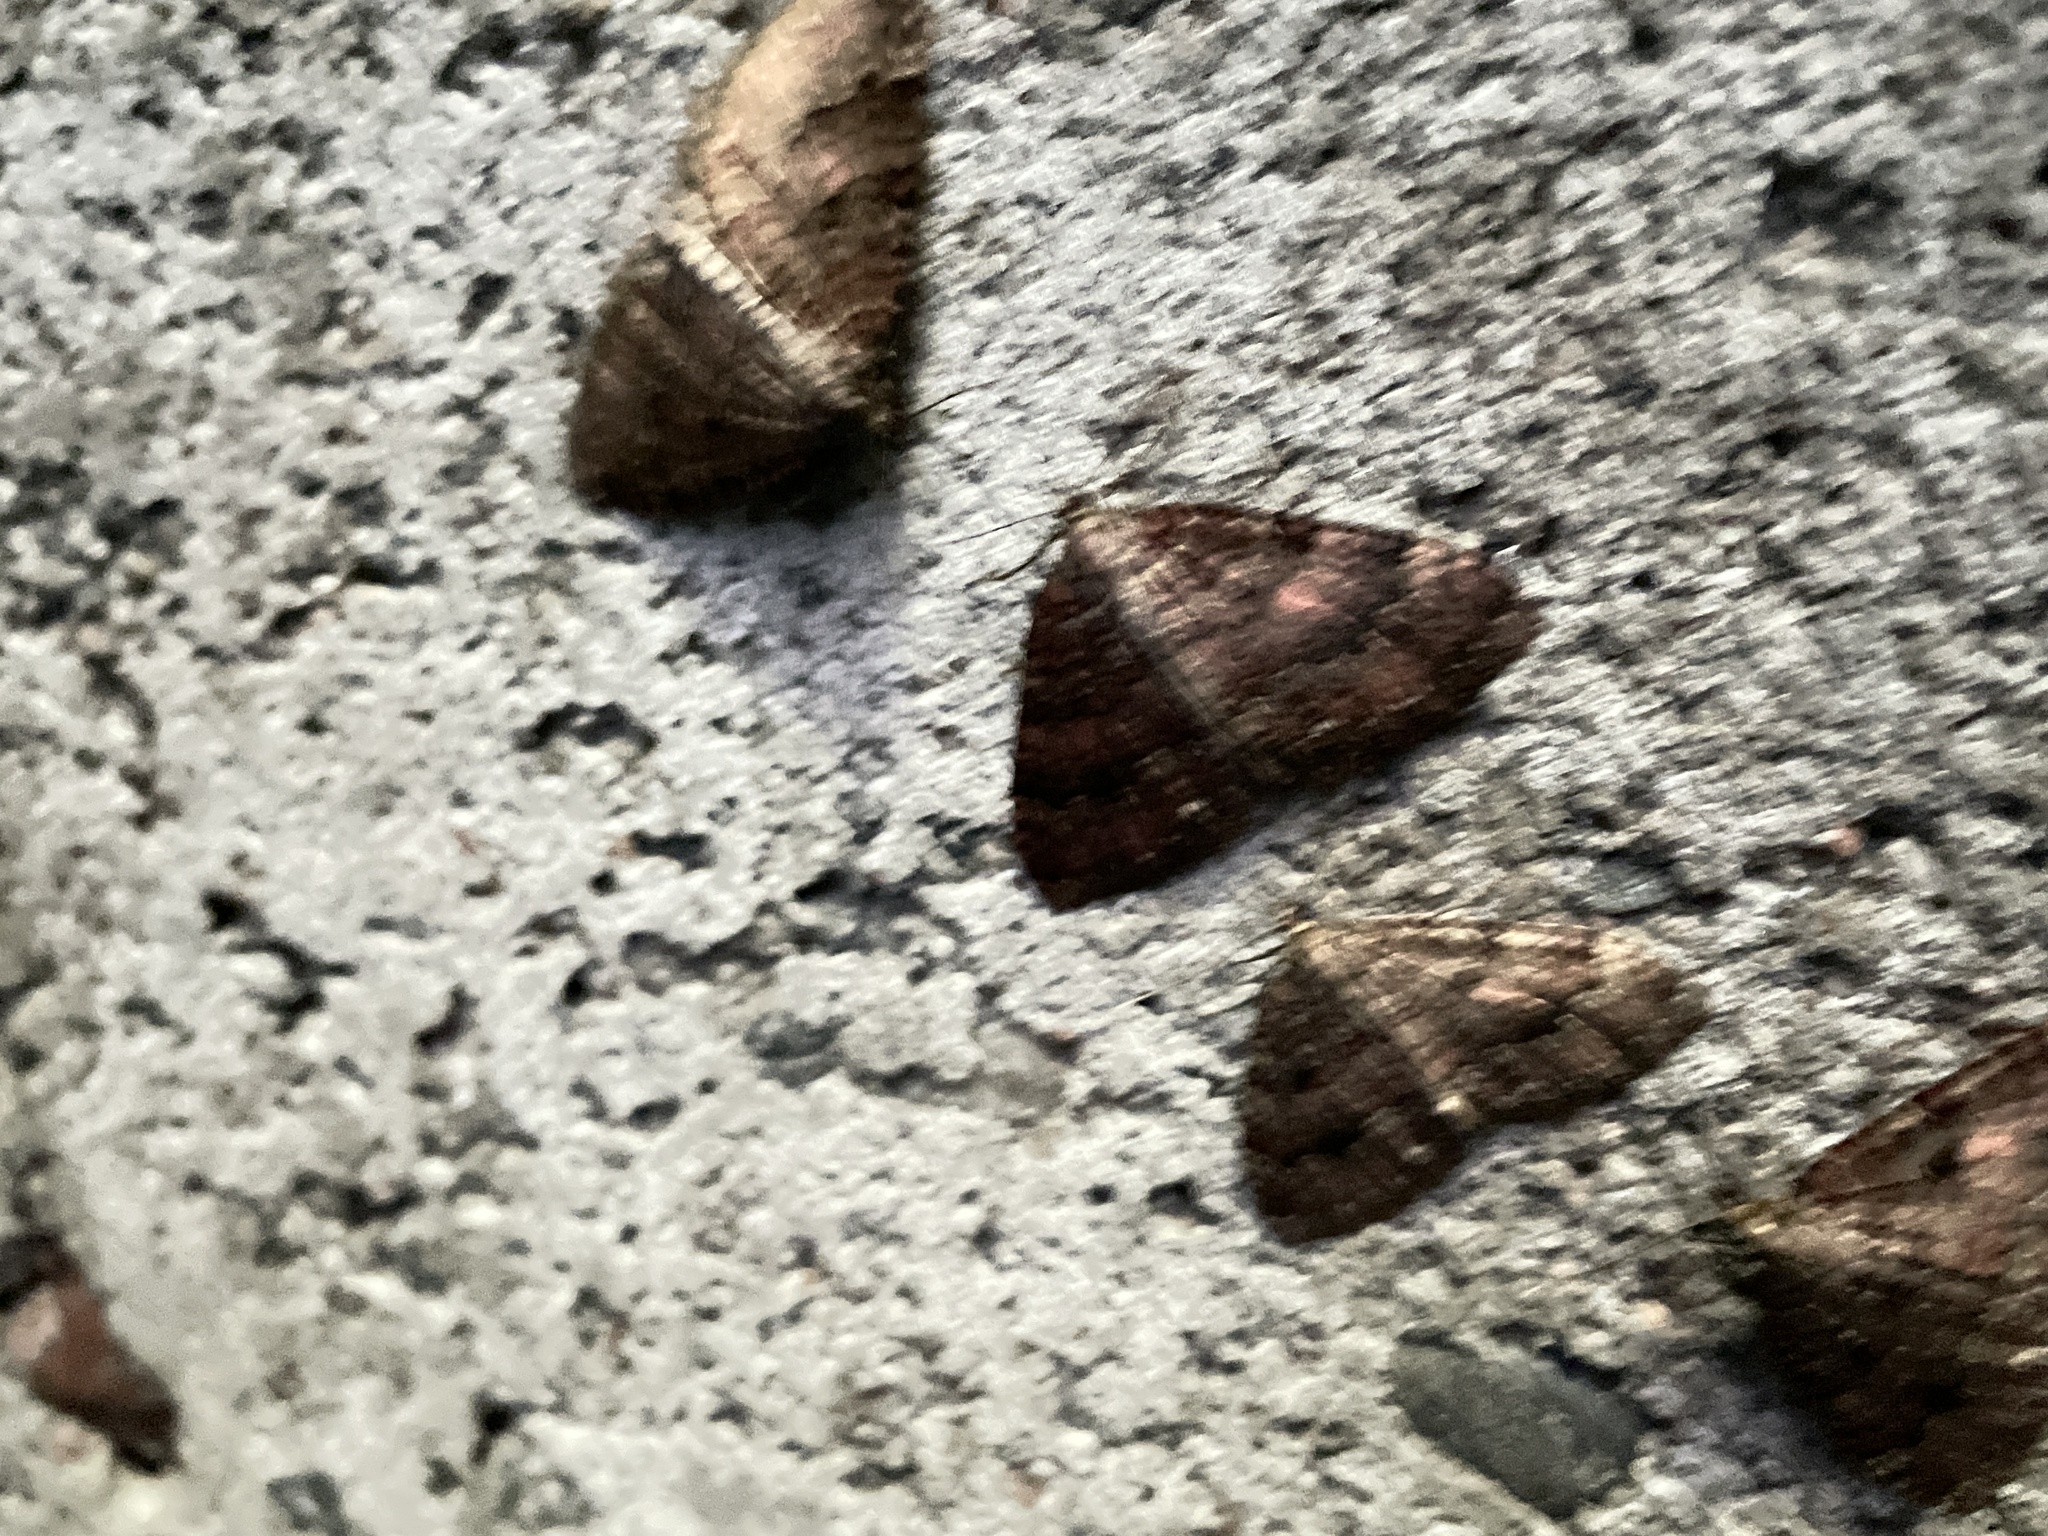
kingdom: Animalia
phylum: Arthropoda
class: Insecta
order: Lepidoptera
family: Geometridae
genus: Triphosa
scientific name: Triphosa dubitata
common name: Tissue
